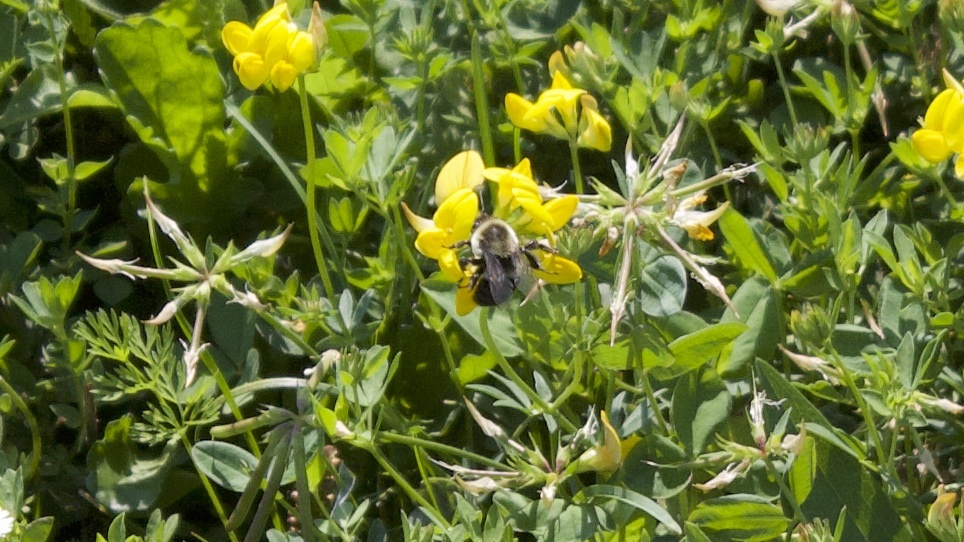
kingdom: Animalia
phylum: Arthropoda
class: Insecta
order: Hymenoptera
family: Apidae
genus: Bombus
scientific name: Bombus impatiens
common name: Common eastern bumble bee
